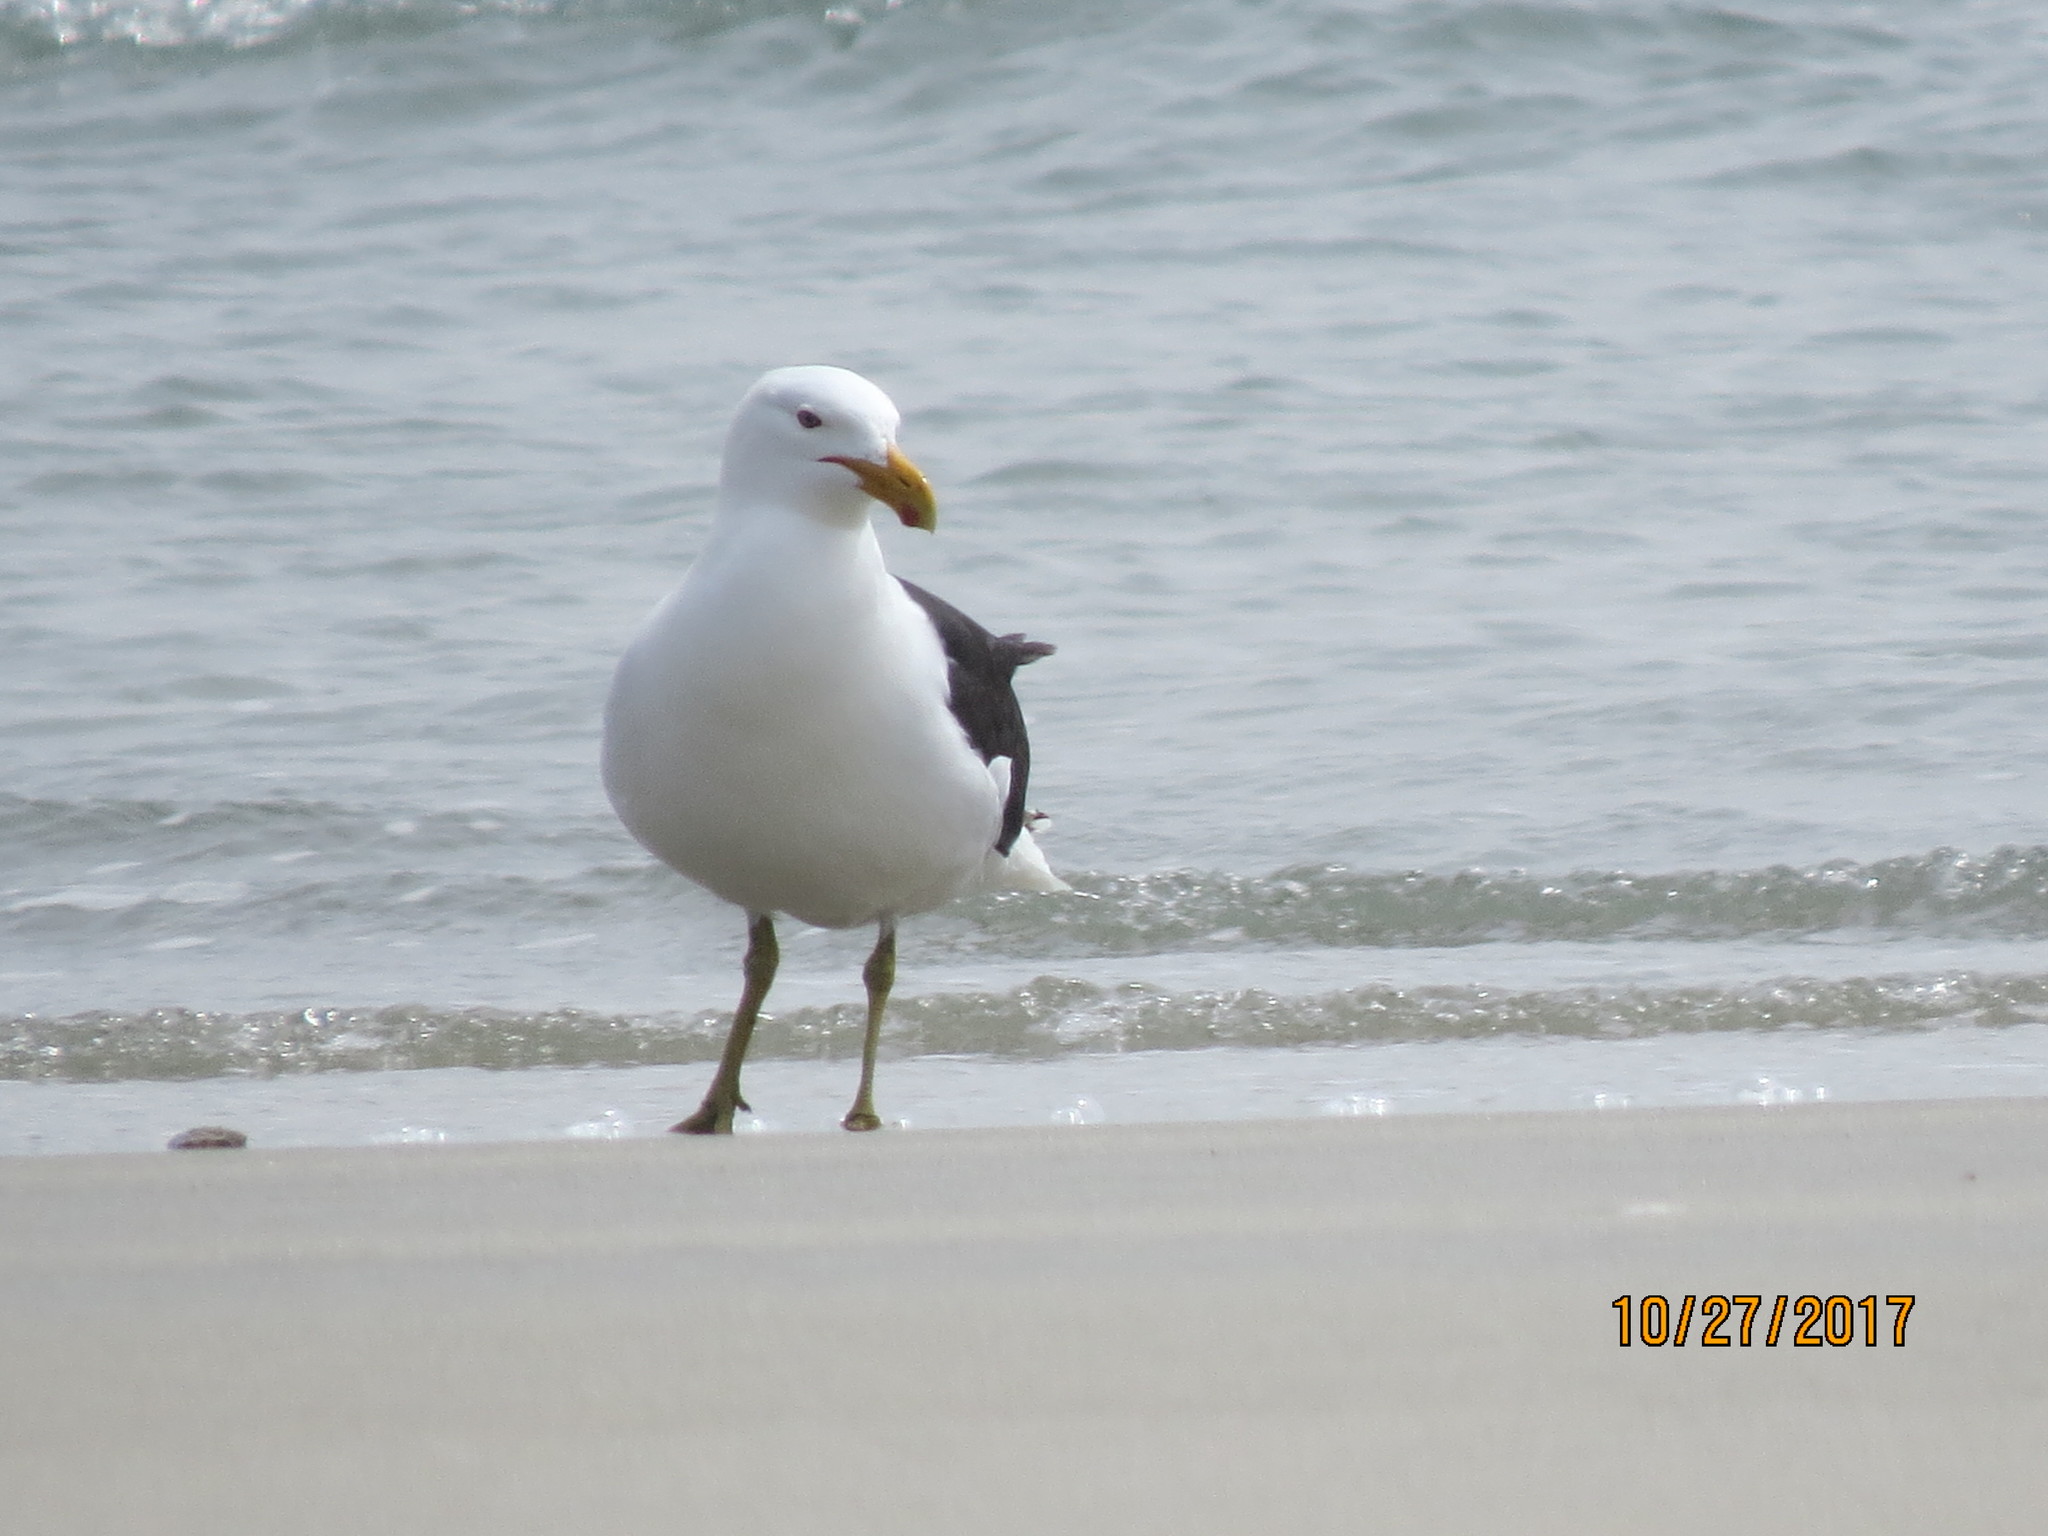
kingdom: Animalia
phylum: Chordata
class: Aves
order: Charadriiformes
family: Laridae
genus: Larus
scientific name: Larus dominicanus
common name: Kelp gull
